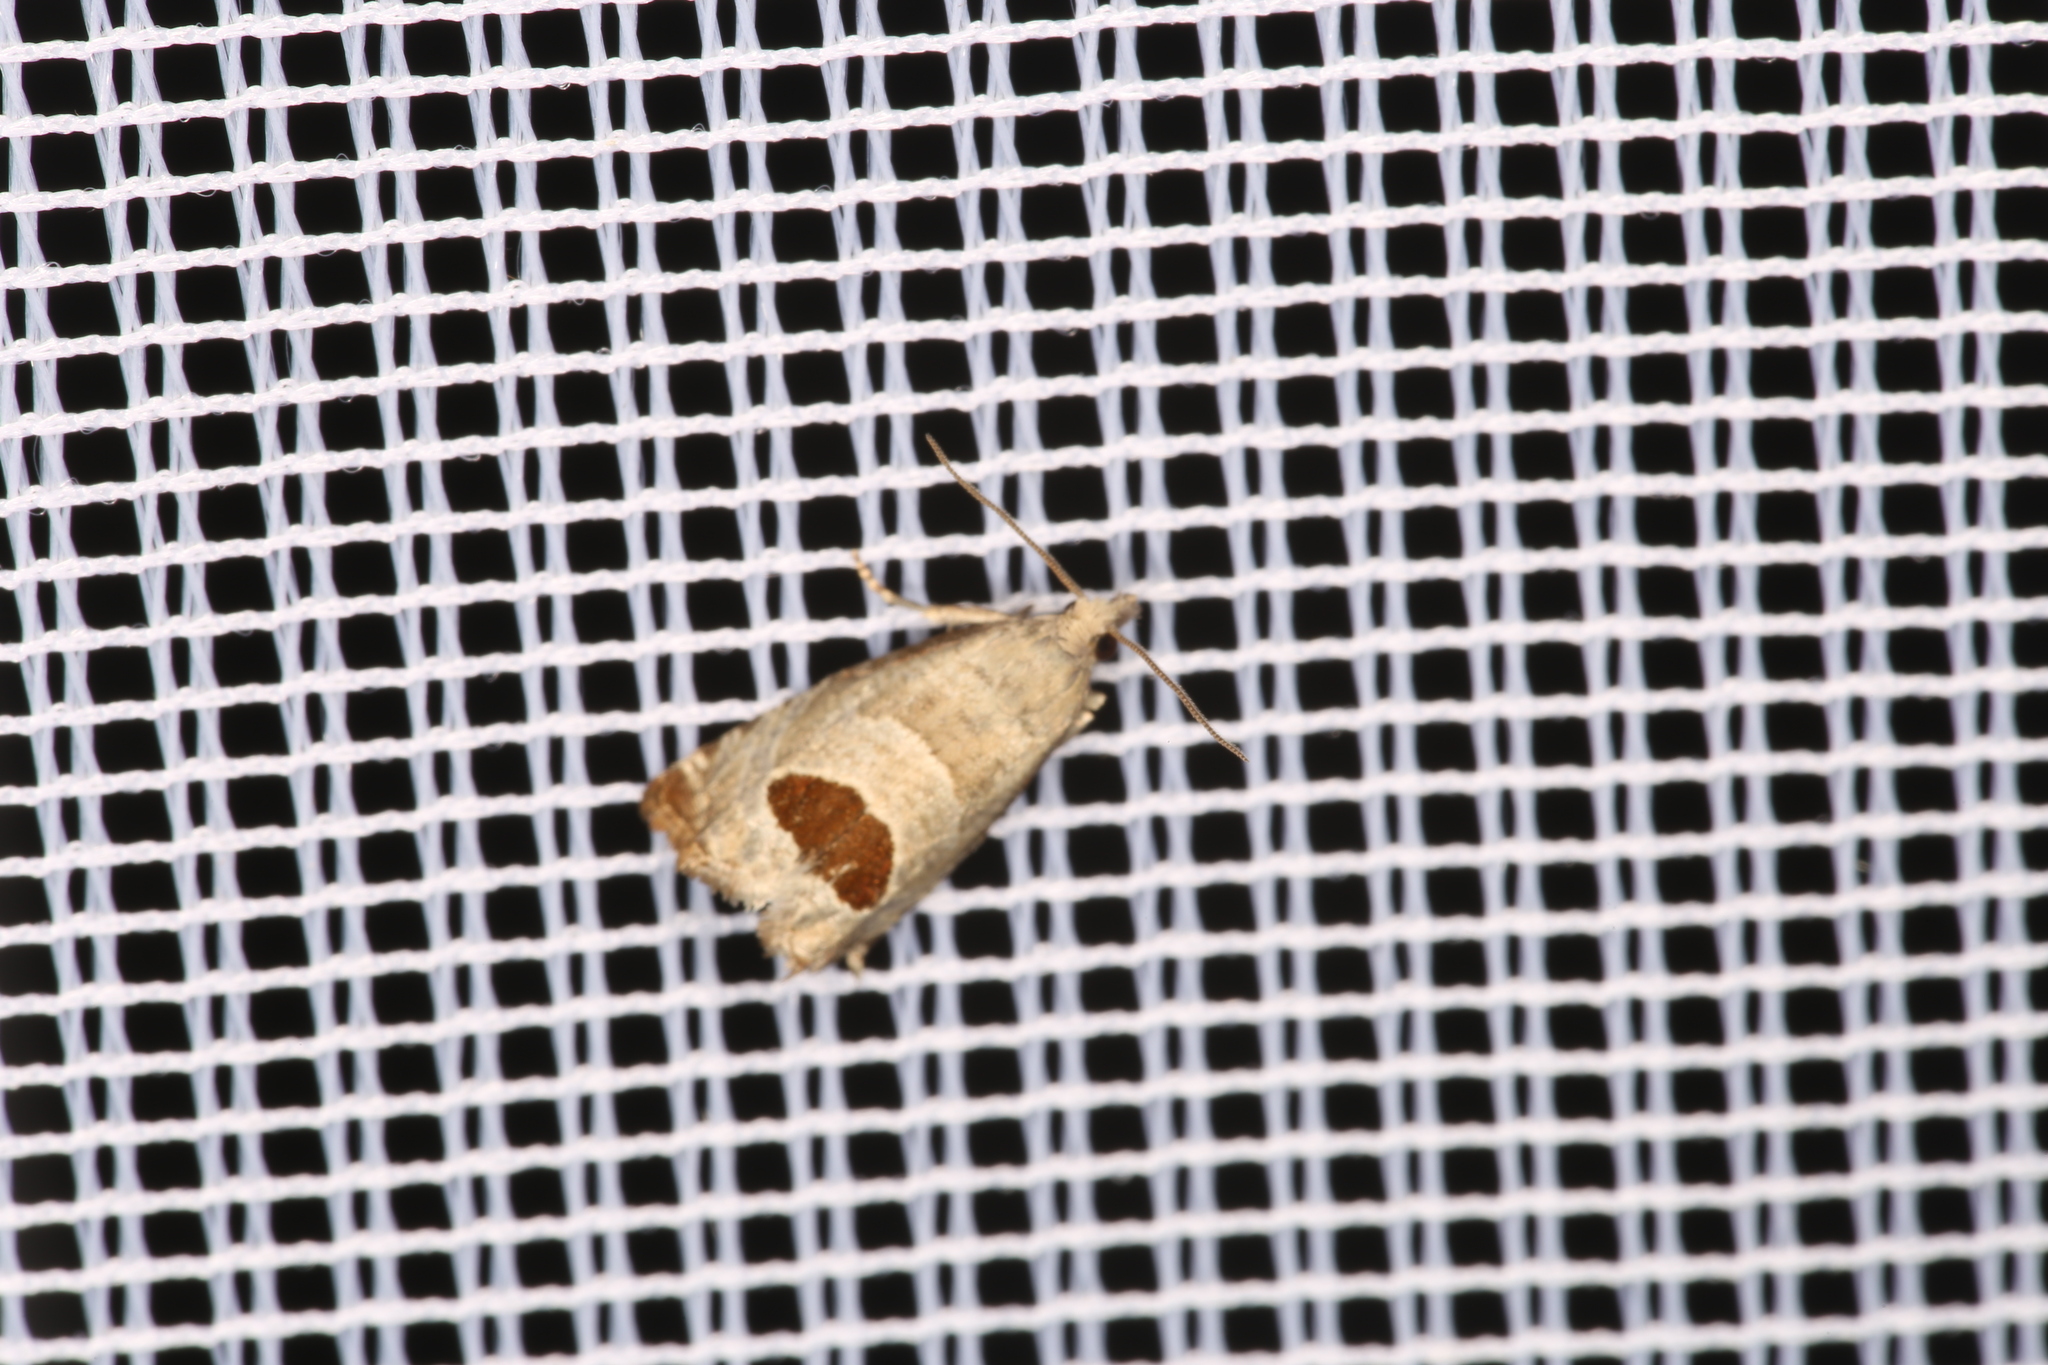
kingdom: Animalia
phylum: Arthropoda
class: Insecta
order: Lepidoptera
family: Tortricidae
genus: Notocelia
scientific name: Notocelia uddmanniana
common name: Bramble shoot moth
